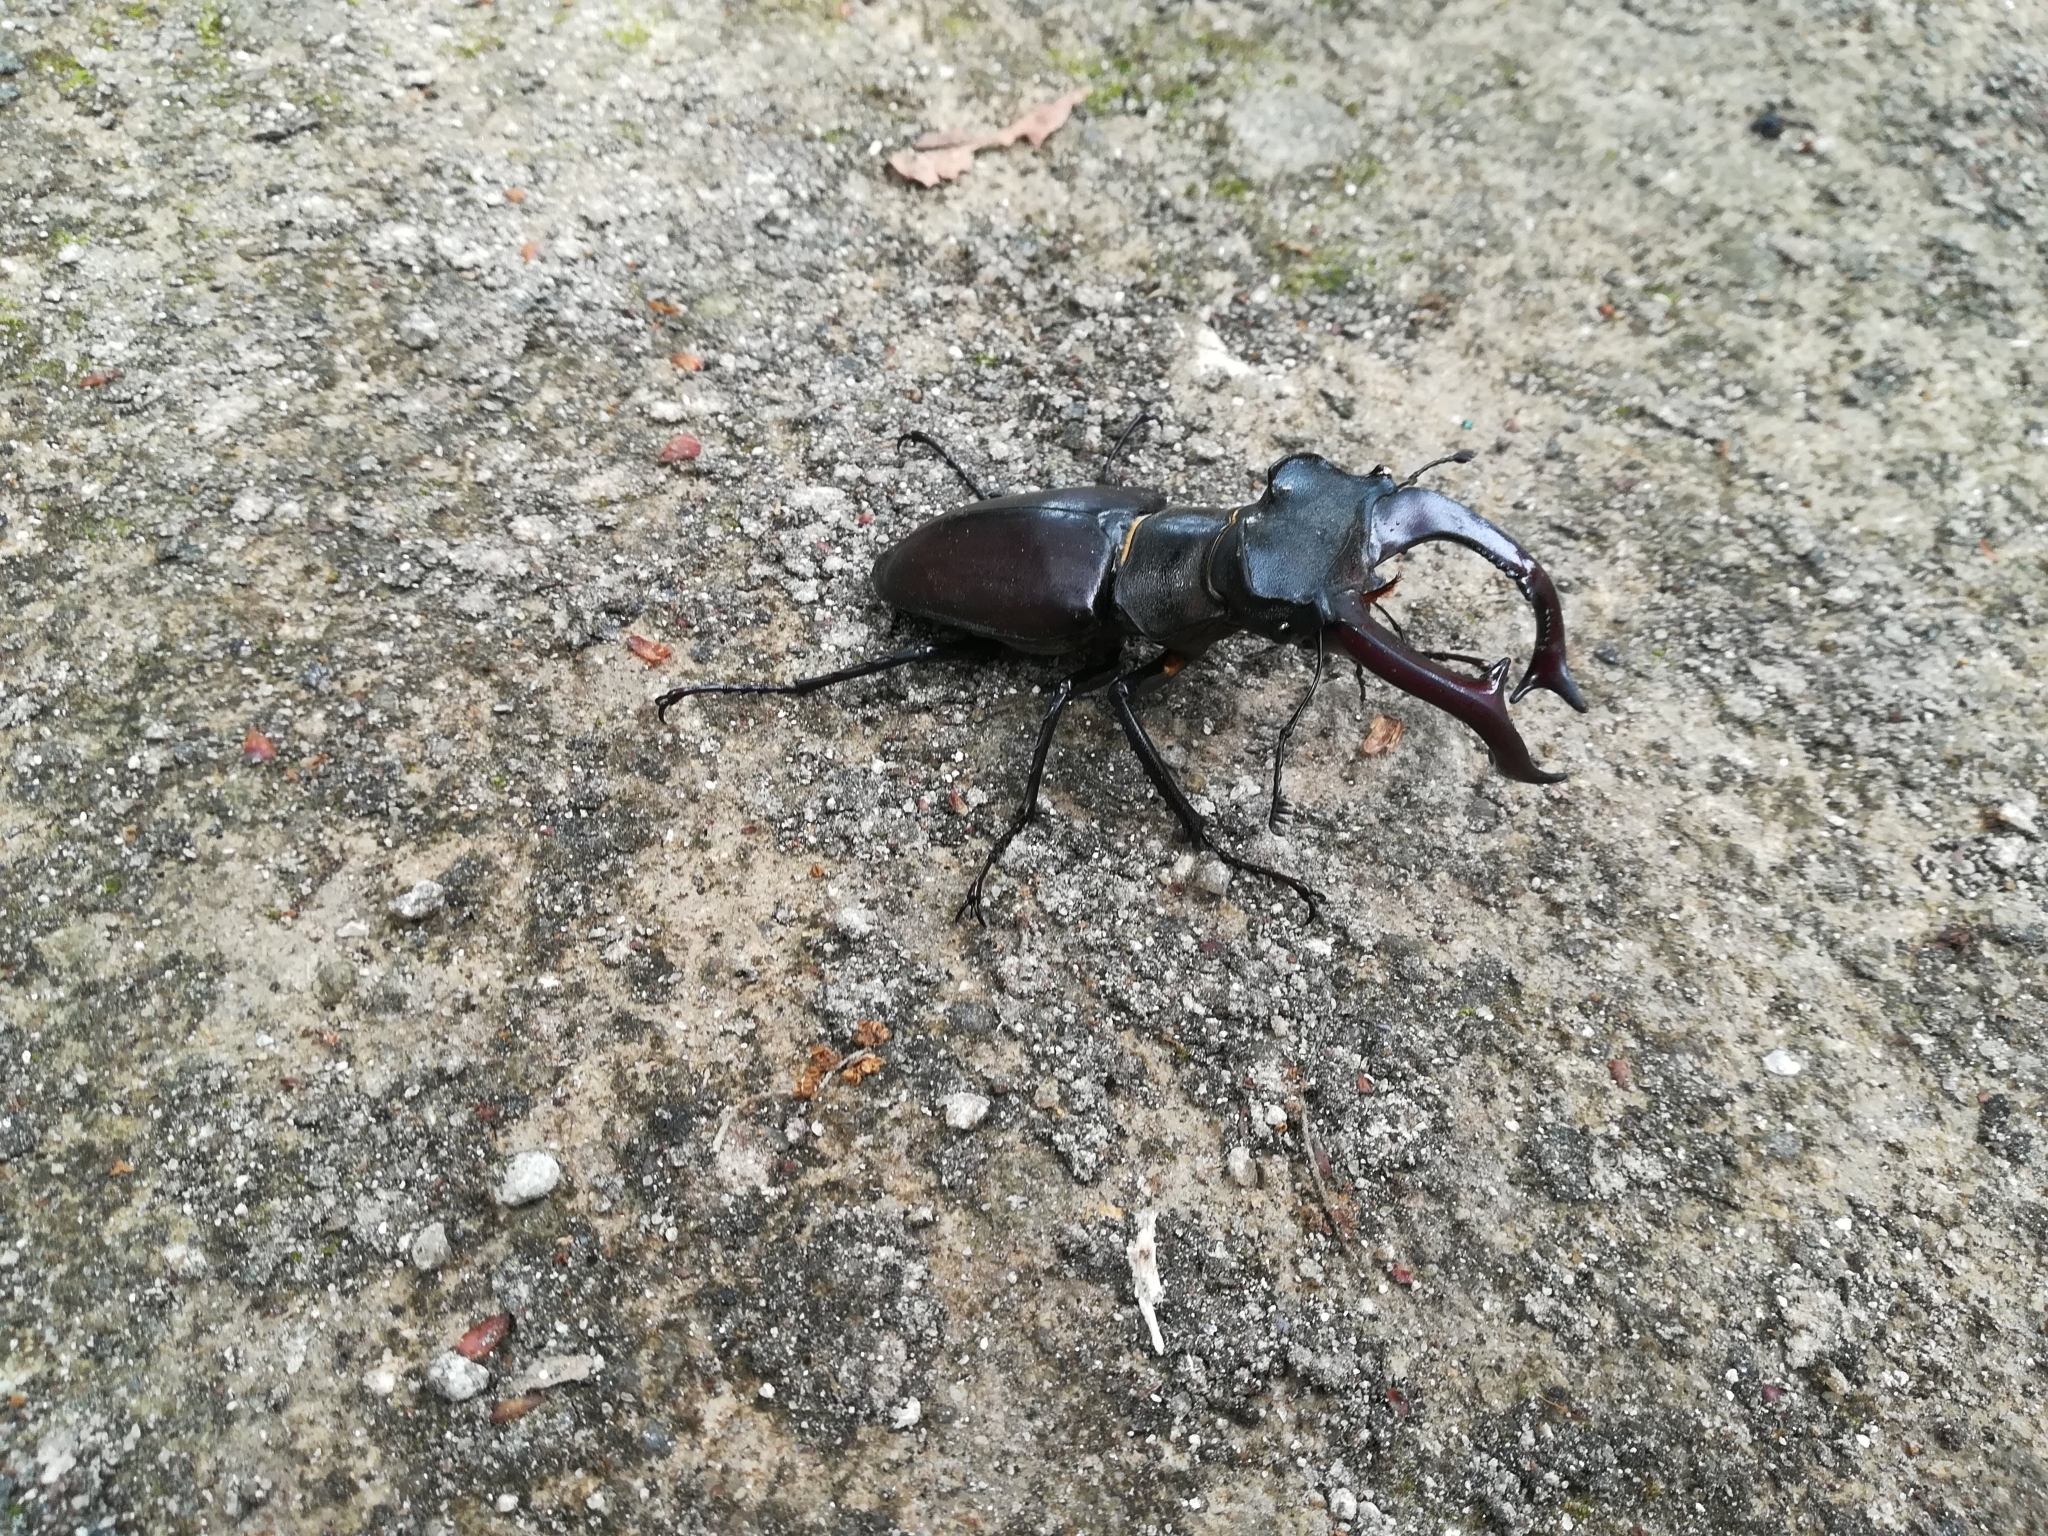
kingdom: Animalia
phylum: Arthropoda
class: Insecta
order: Coleoptera
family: Lucanidae
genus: Lucanus
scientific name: Lucanus cervus
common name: Stag beetle
